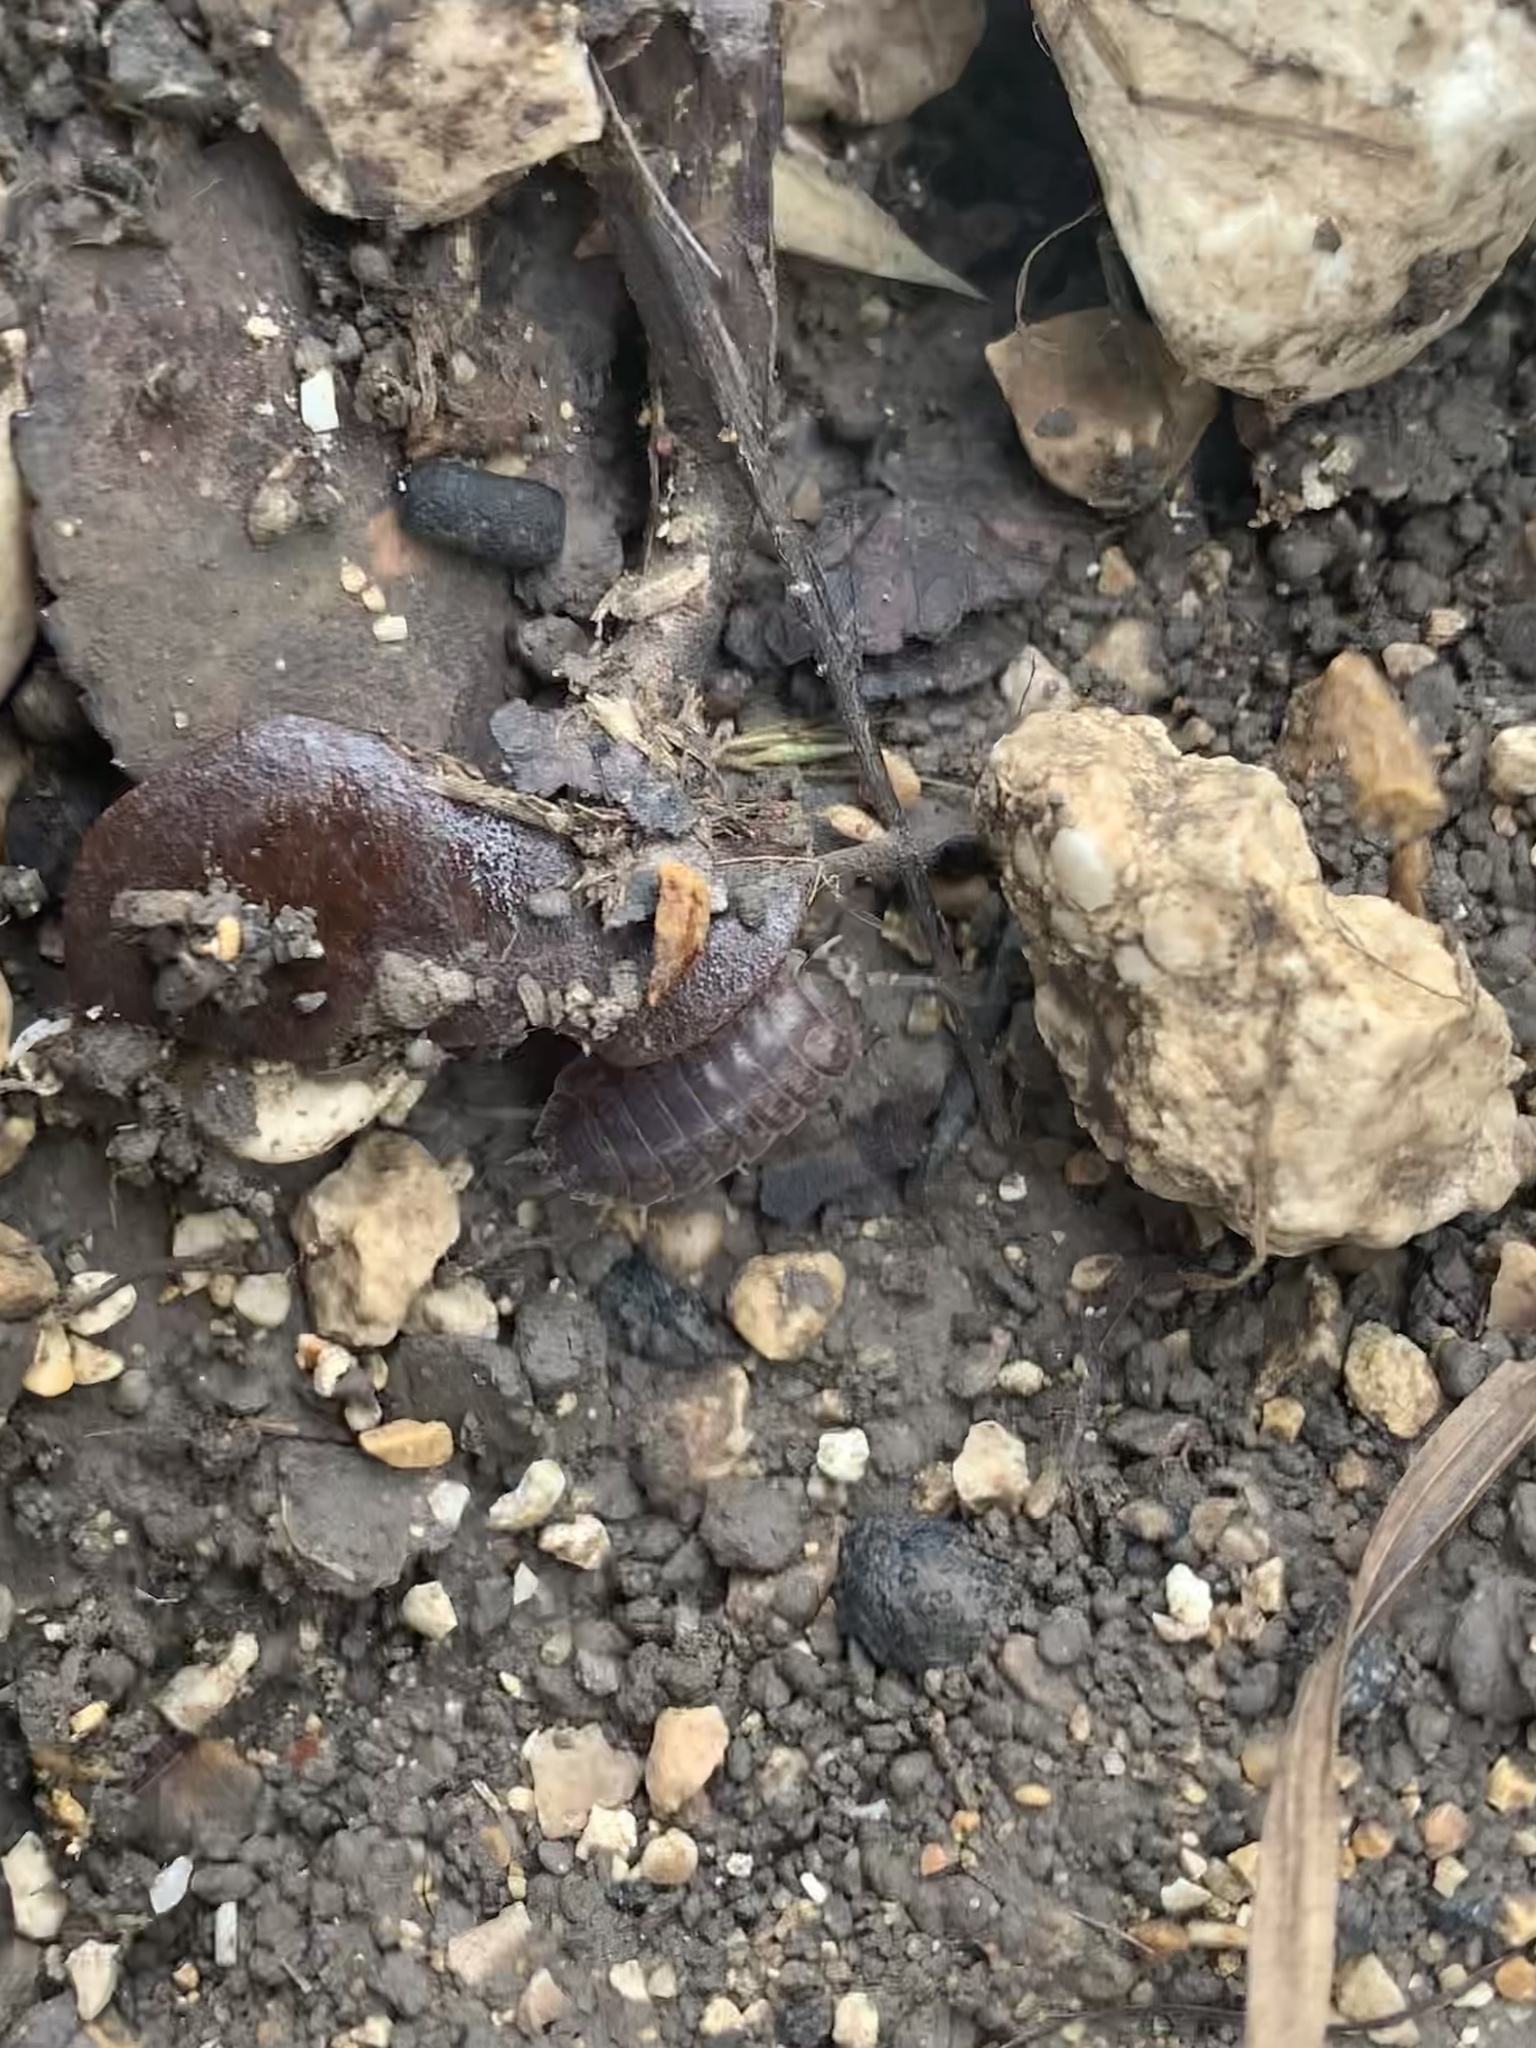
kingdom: Animalia
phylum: Arthropoda
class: Malacostraca
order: Isopoda
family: Porcellionidae
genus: Porcellio
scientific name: Porcellio laevis
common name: Swift woodlouse
